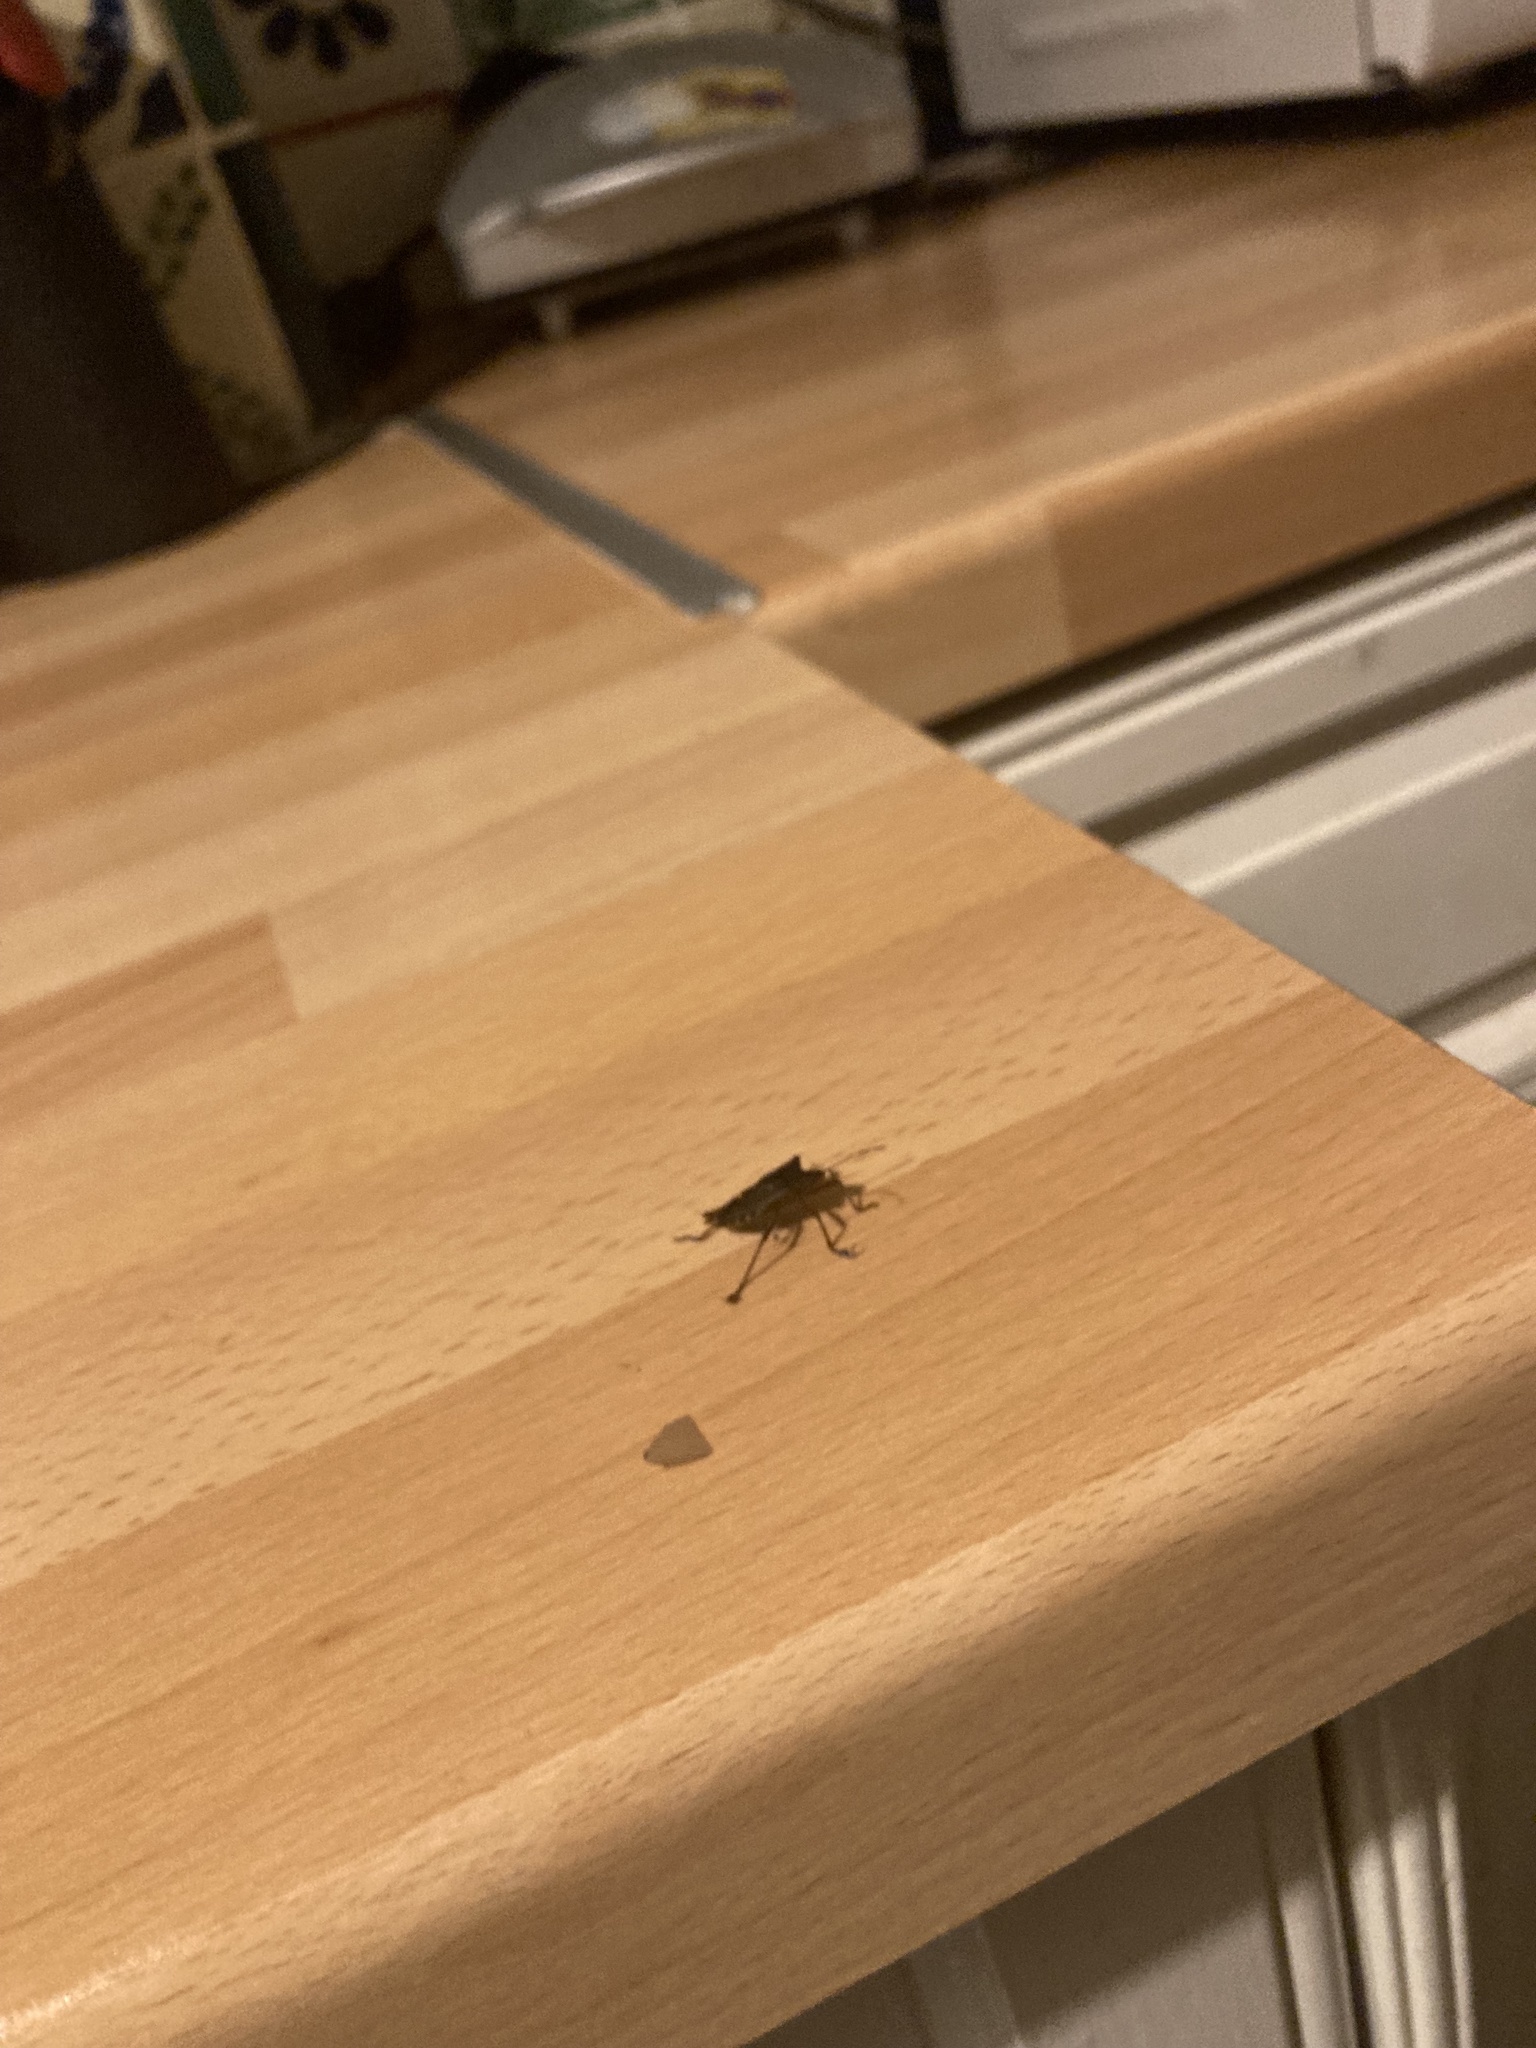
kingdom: Animalia
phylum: Arthropoda
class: Insecta
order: Hemiptera
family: Pentatomidae
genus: Pentatoma
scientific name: Pentatoma rufipes
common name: Forest bug
